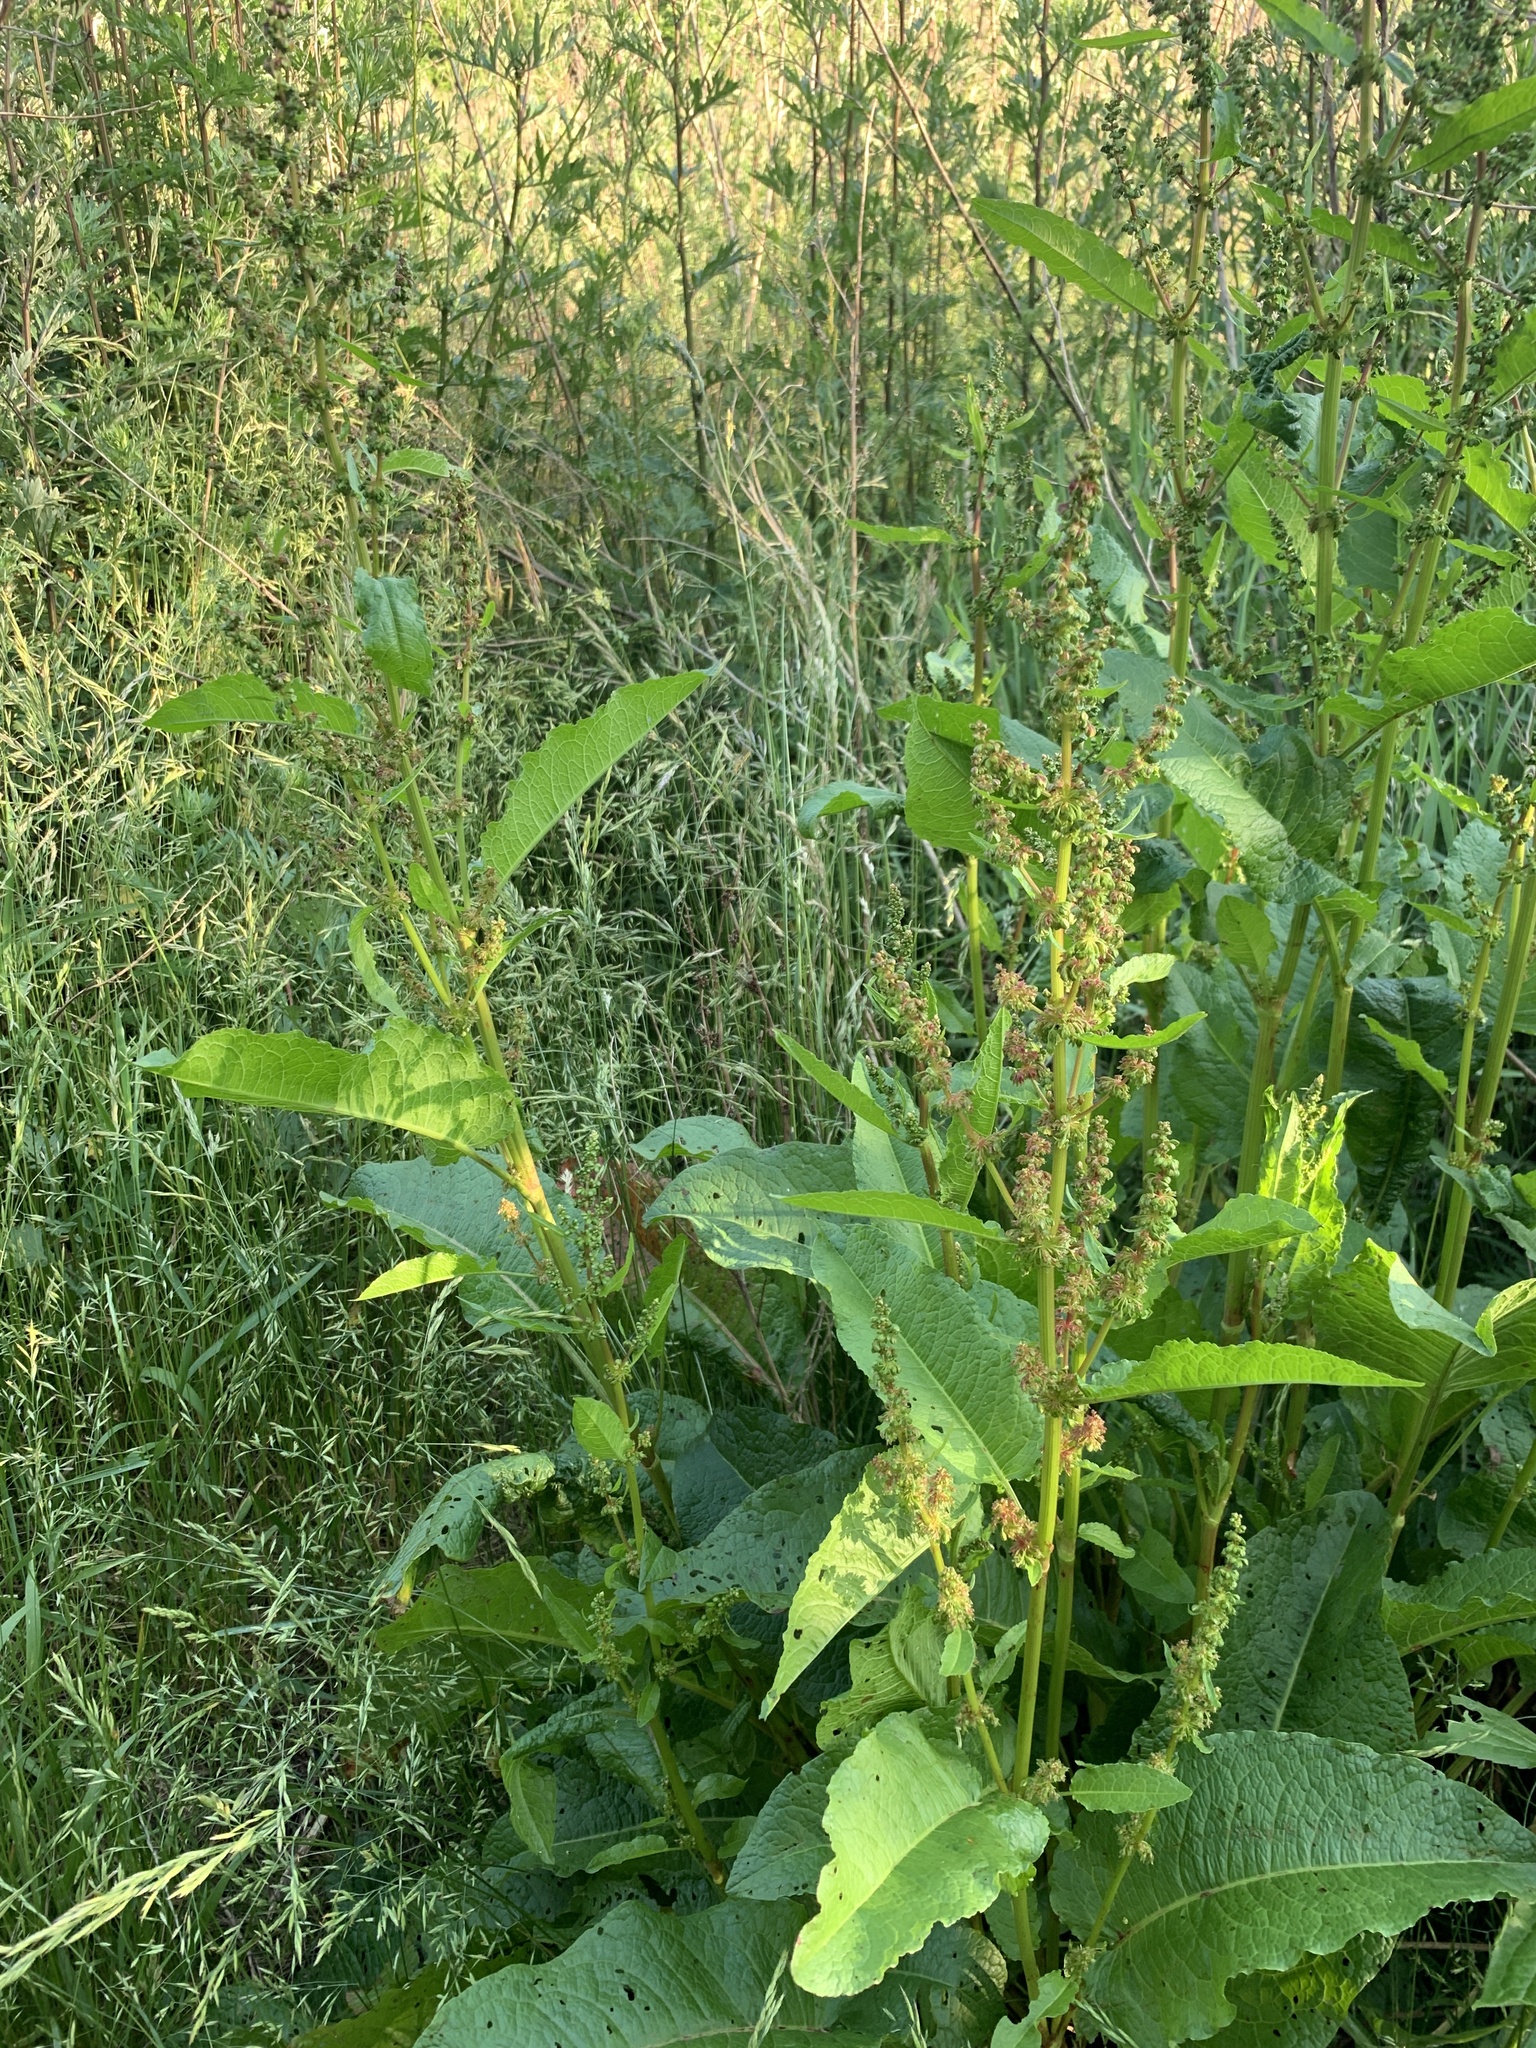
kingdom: Plantae
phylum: Tracheophyta
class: Magnoliopsida
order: Caryophyllales
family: Polygonaceae
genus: Rumex
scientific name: Rumex obtusifolius
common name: Bitter dock
